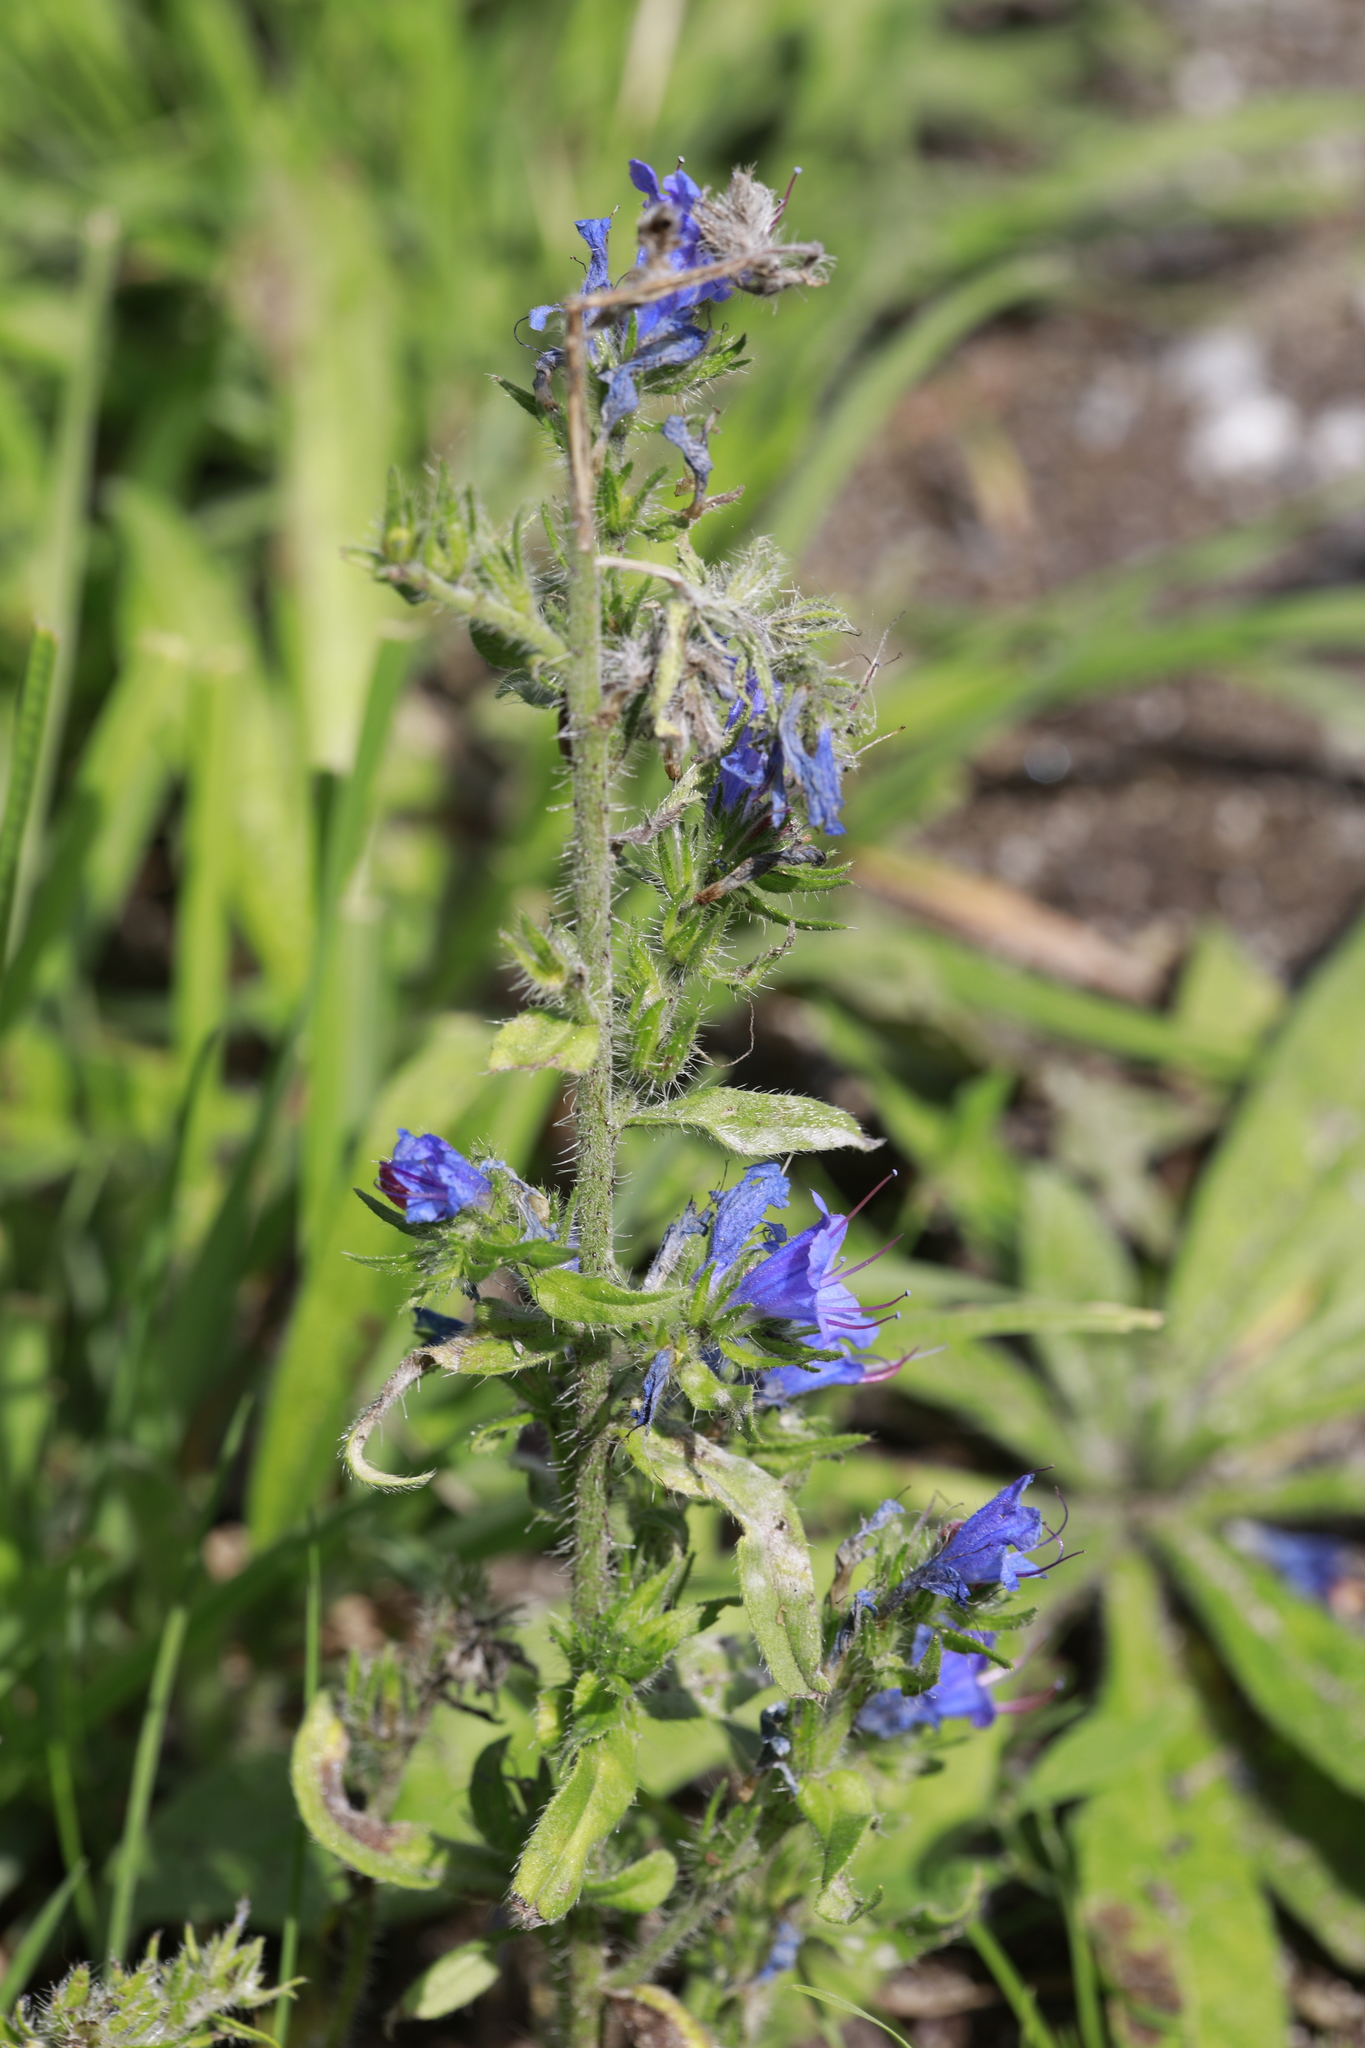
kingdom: Plantae
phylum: Tracheophyta
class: Magnoliopsida
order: Boraginales
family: Boraginaceae
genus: Echium
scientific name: Echium vulgare
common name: Common viper's bugloss
